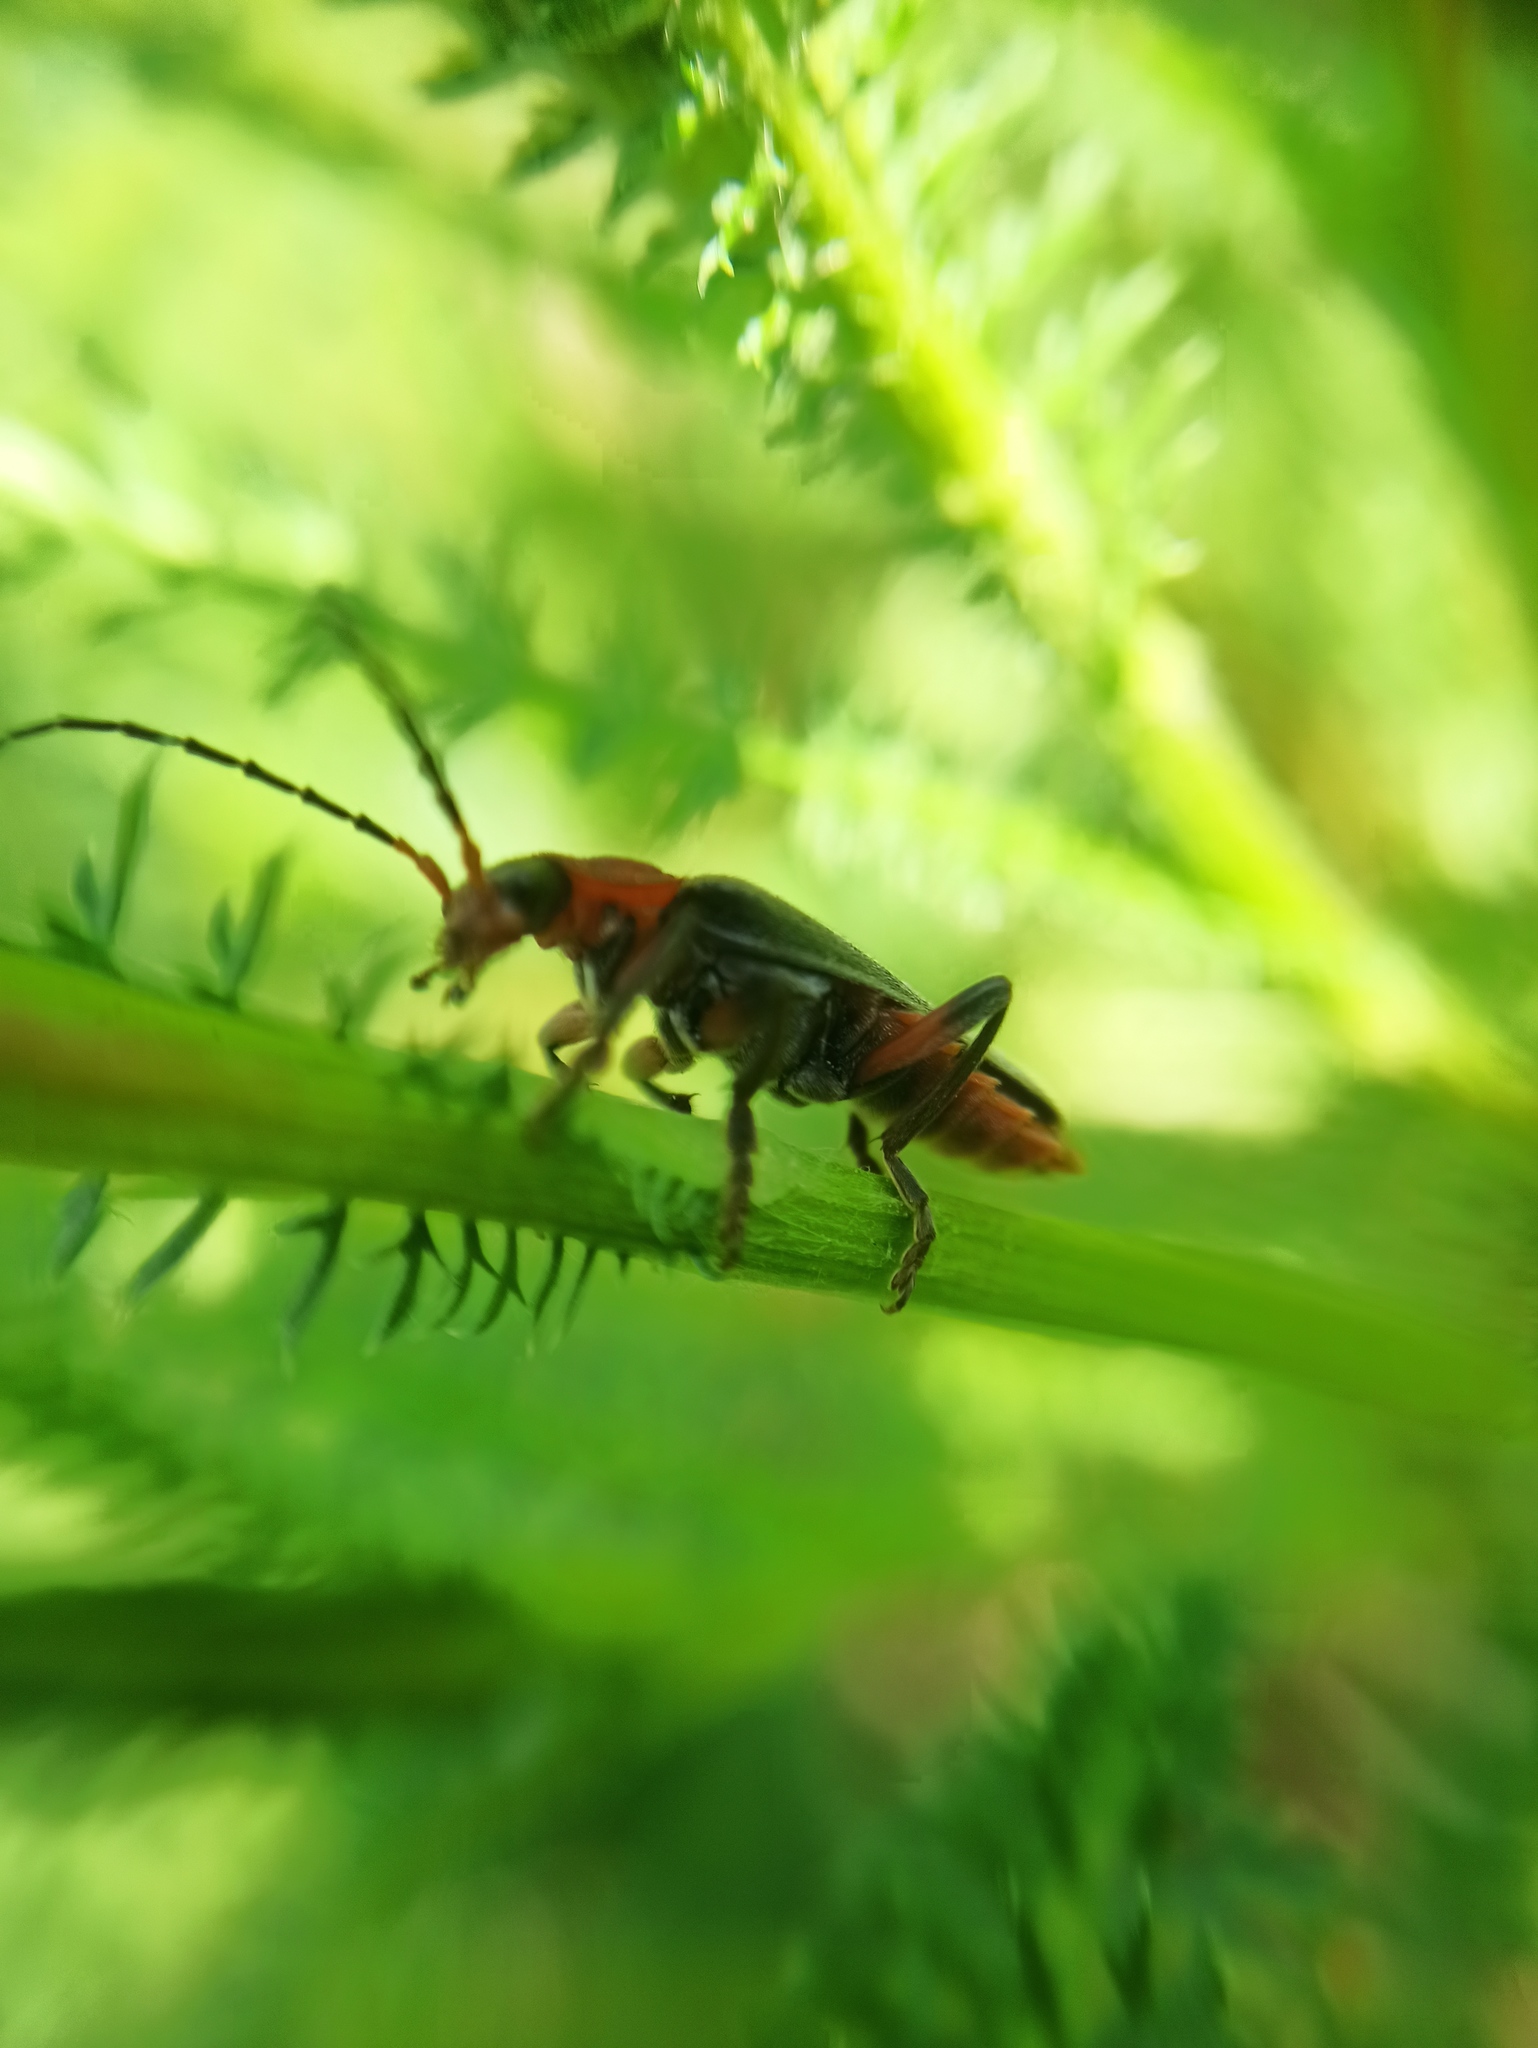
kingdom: Animalia
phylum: Arthropoda
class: Insecta
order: Coleoptera
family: Cantharidae
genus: Cantharis
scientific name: Cantharis rustica
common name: Soldier beetle
